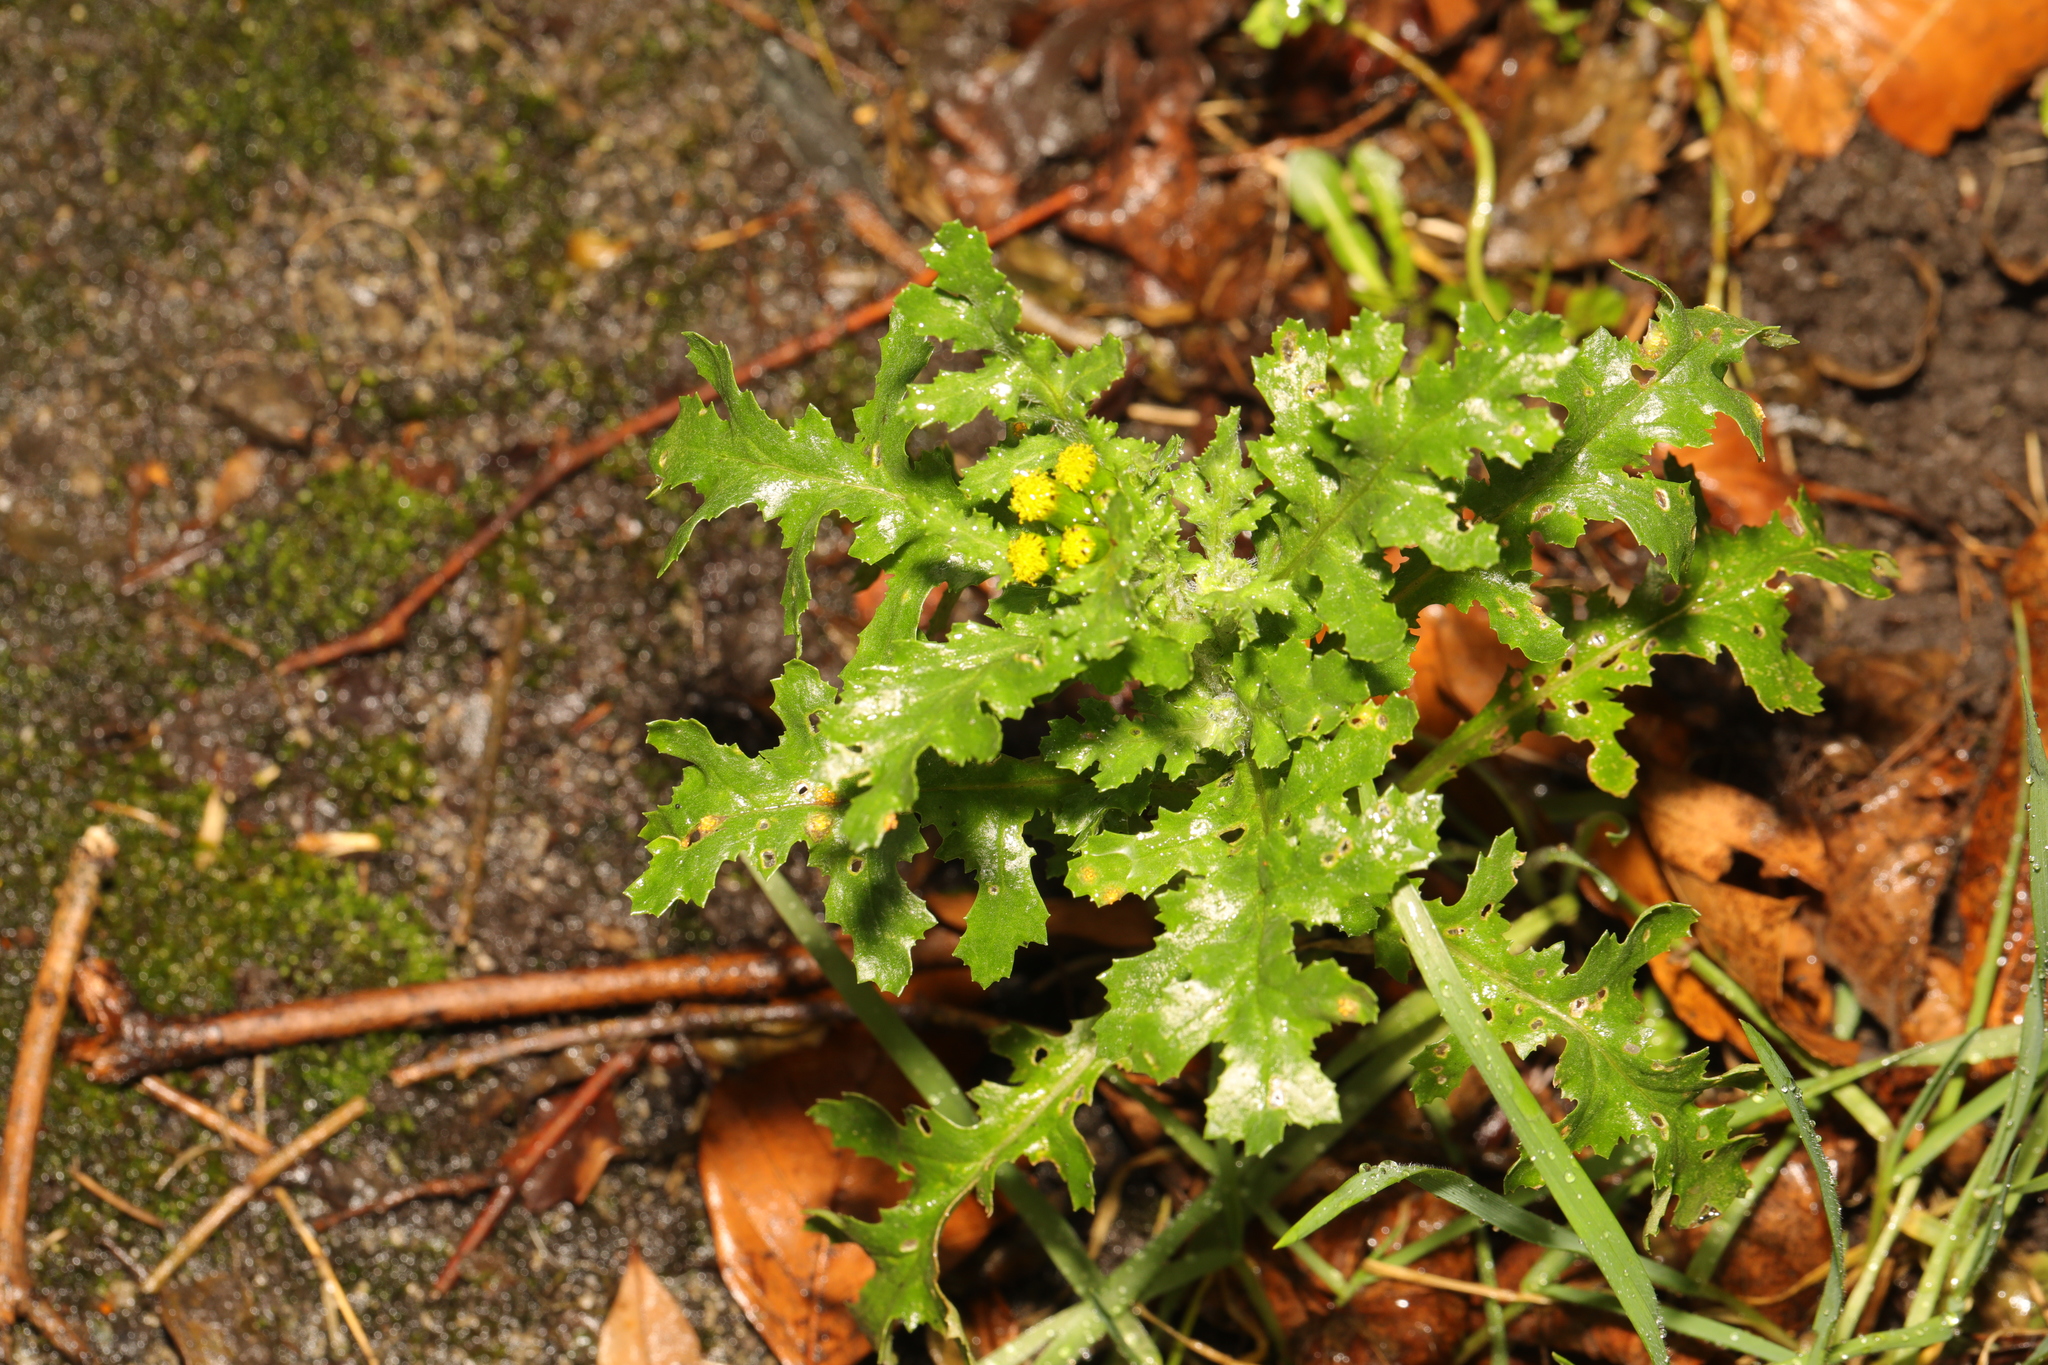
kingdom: Plantae
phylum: Tracheophyta
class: Magnoliopsida
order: Asterales
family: Asteraceae
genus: Senecio
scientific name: Senecio vulgaris
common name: Old-man-in-the-spring
